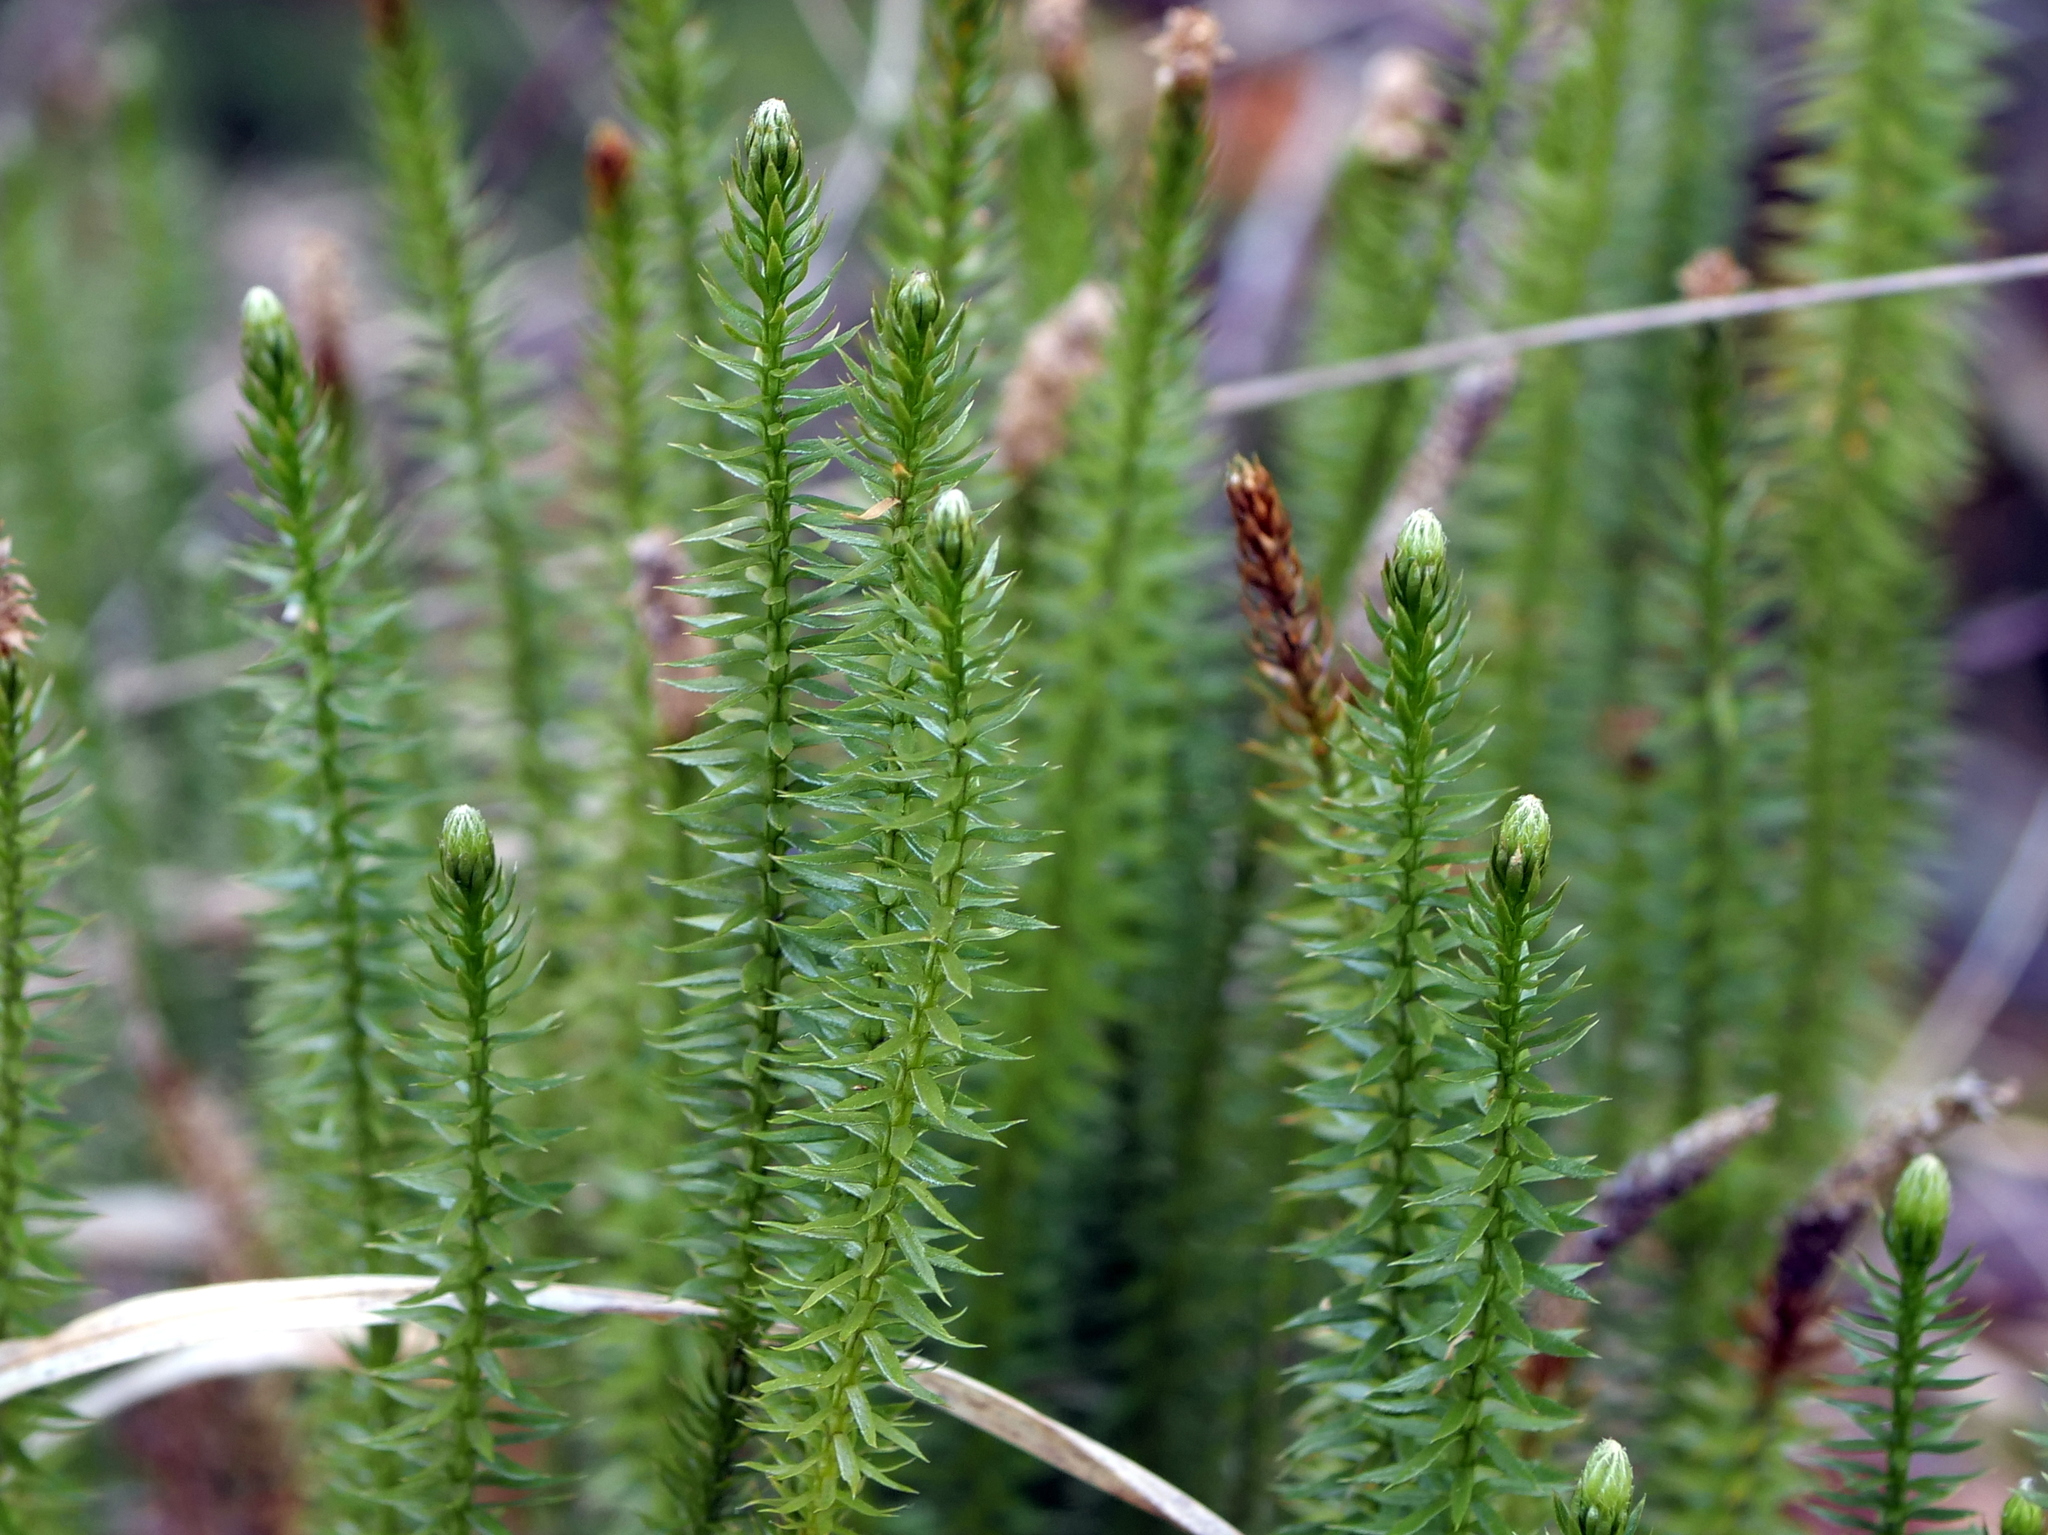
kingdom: Plantae
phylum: Tracheophyta
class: Lycopodiopsida
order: Lycopodiales
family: Lycopodiaceae
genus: Spinulum
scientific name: Spinulum annotinum
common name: Interrupted club-moss
